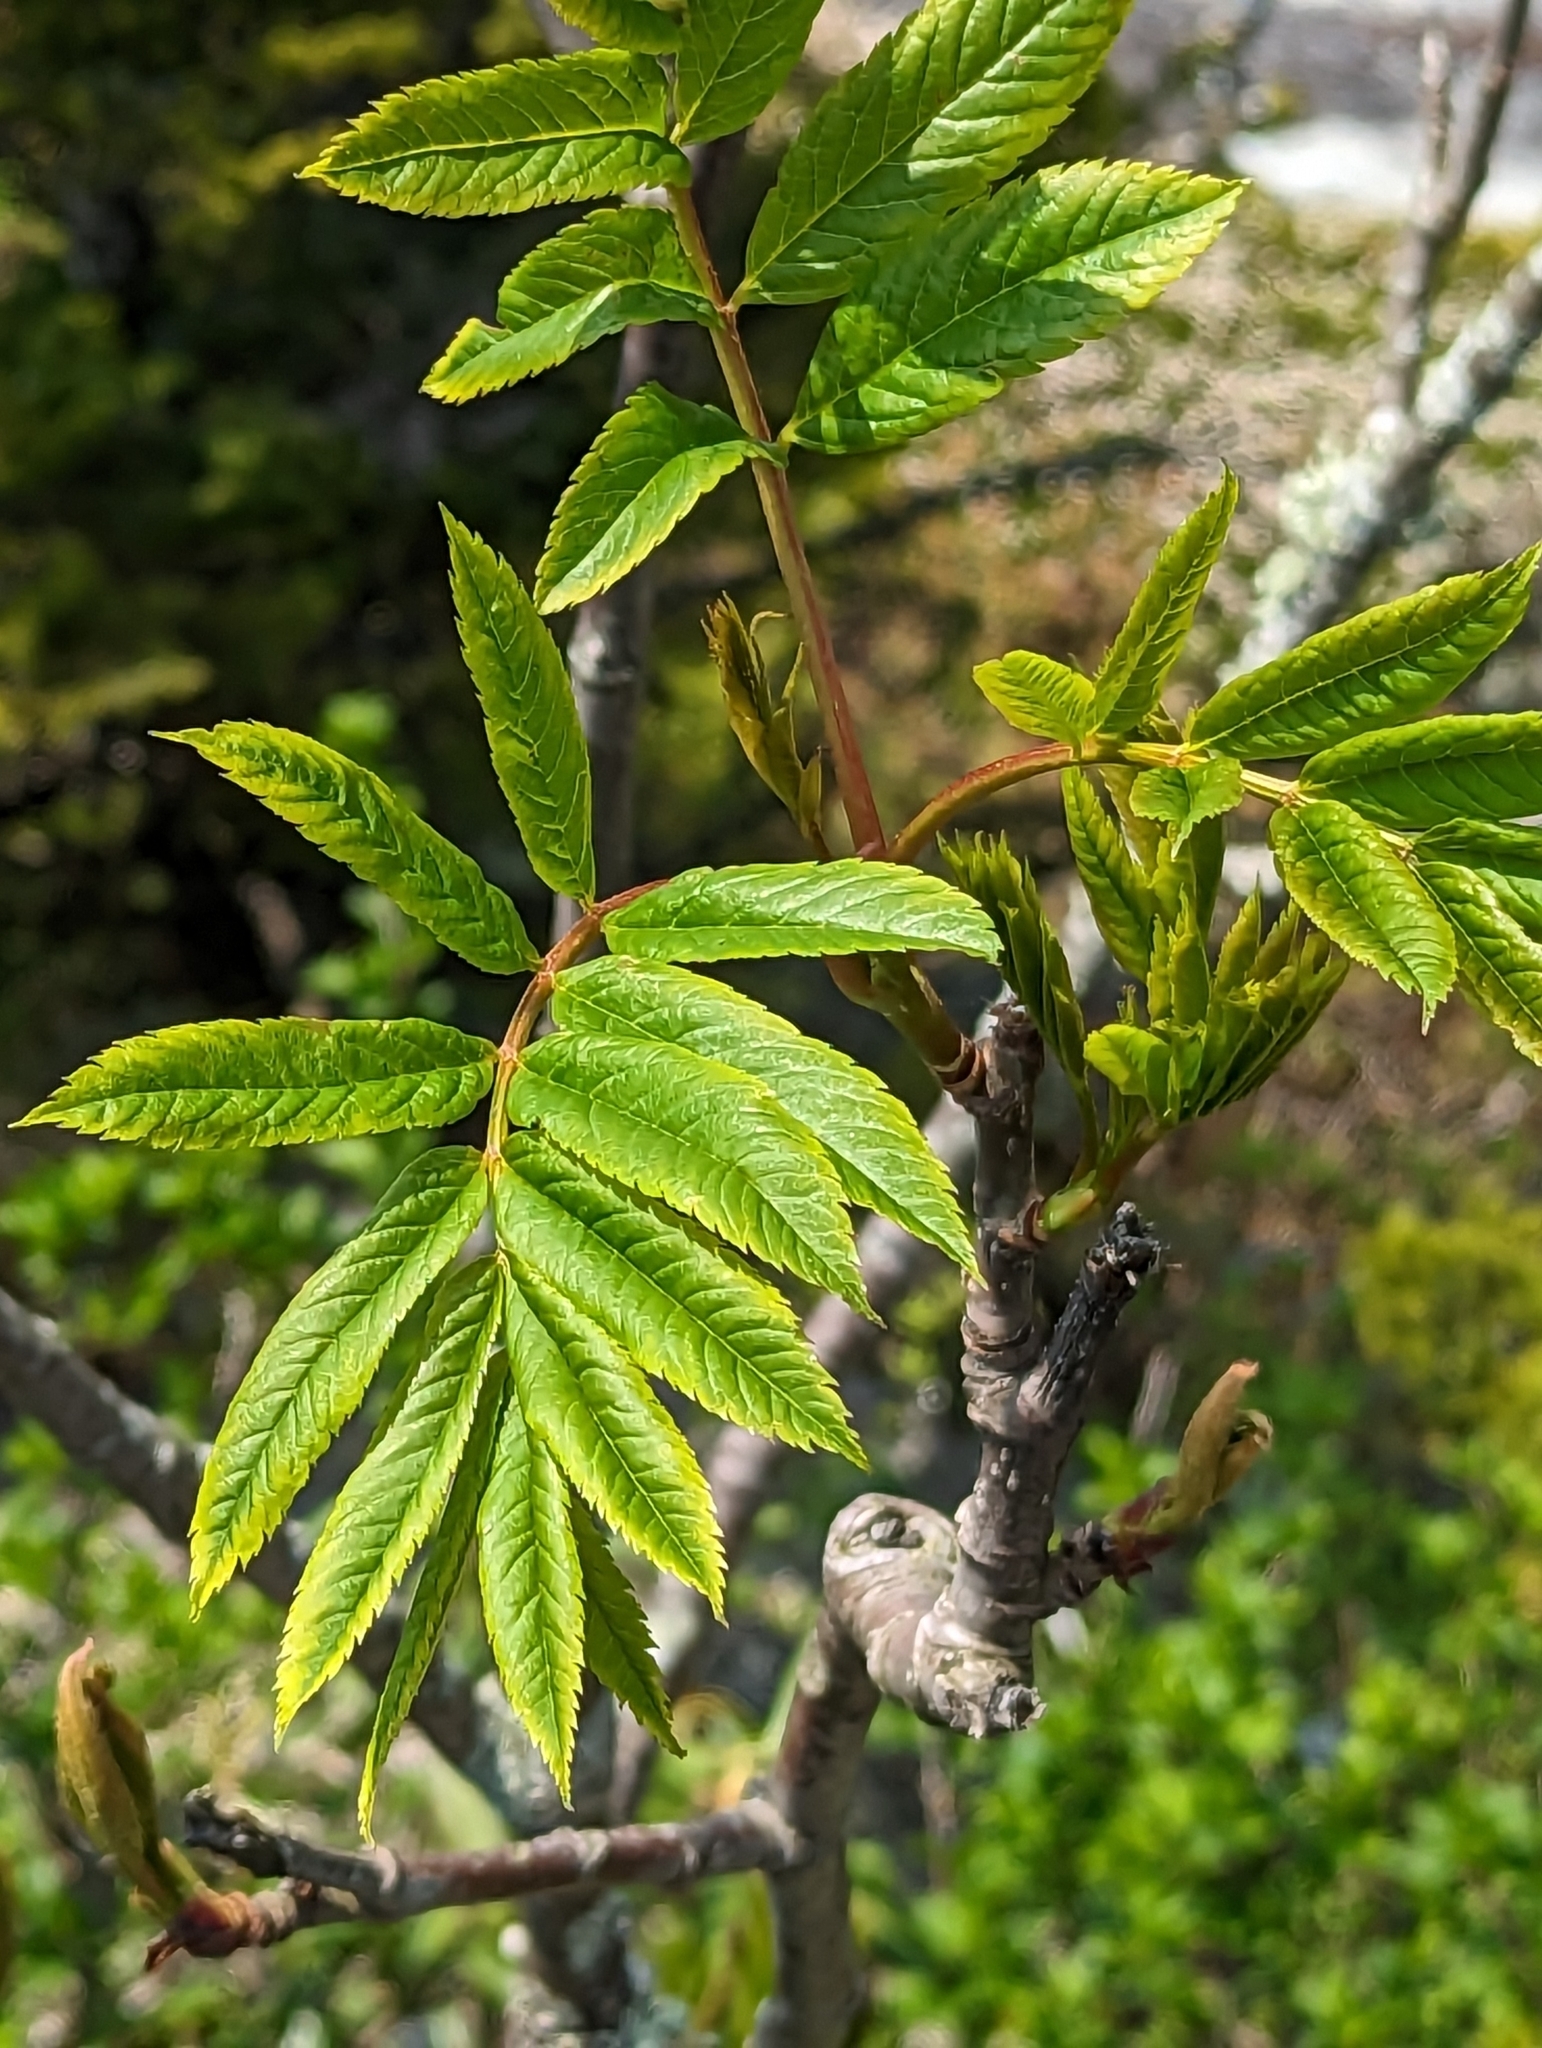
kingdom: Plantae
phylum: Tracheophyta
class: Magnoliopsida
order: Rosales
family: Rosaceae
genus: Sorbus
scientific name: Sorbus americana
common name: American mountain-ash
